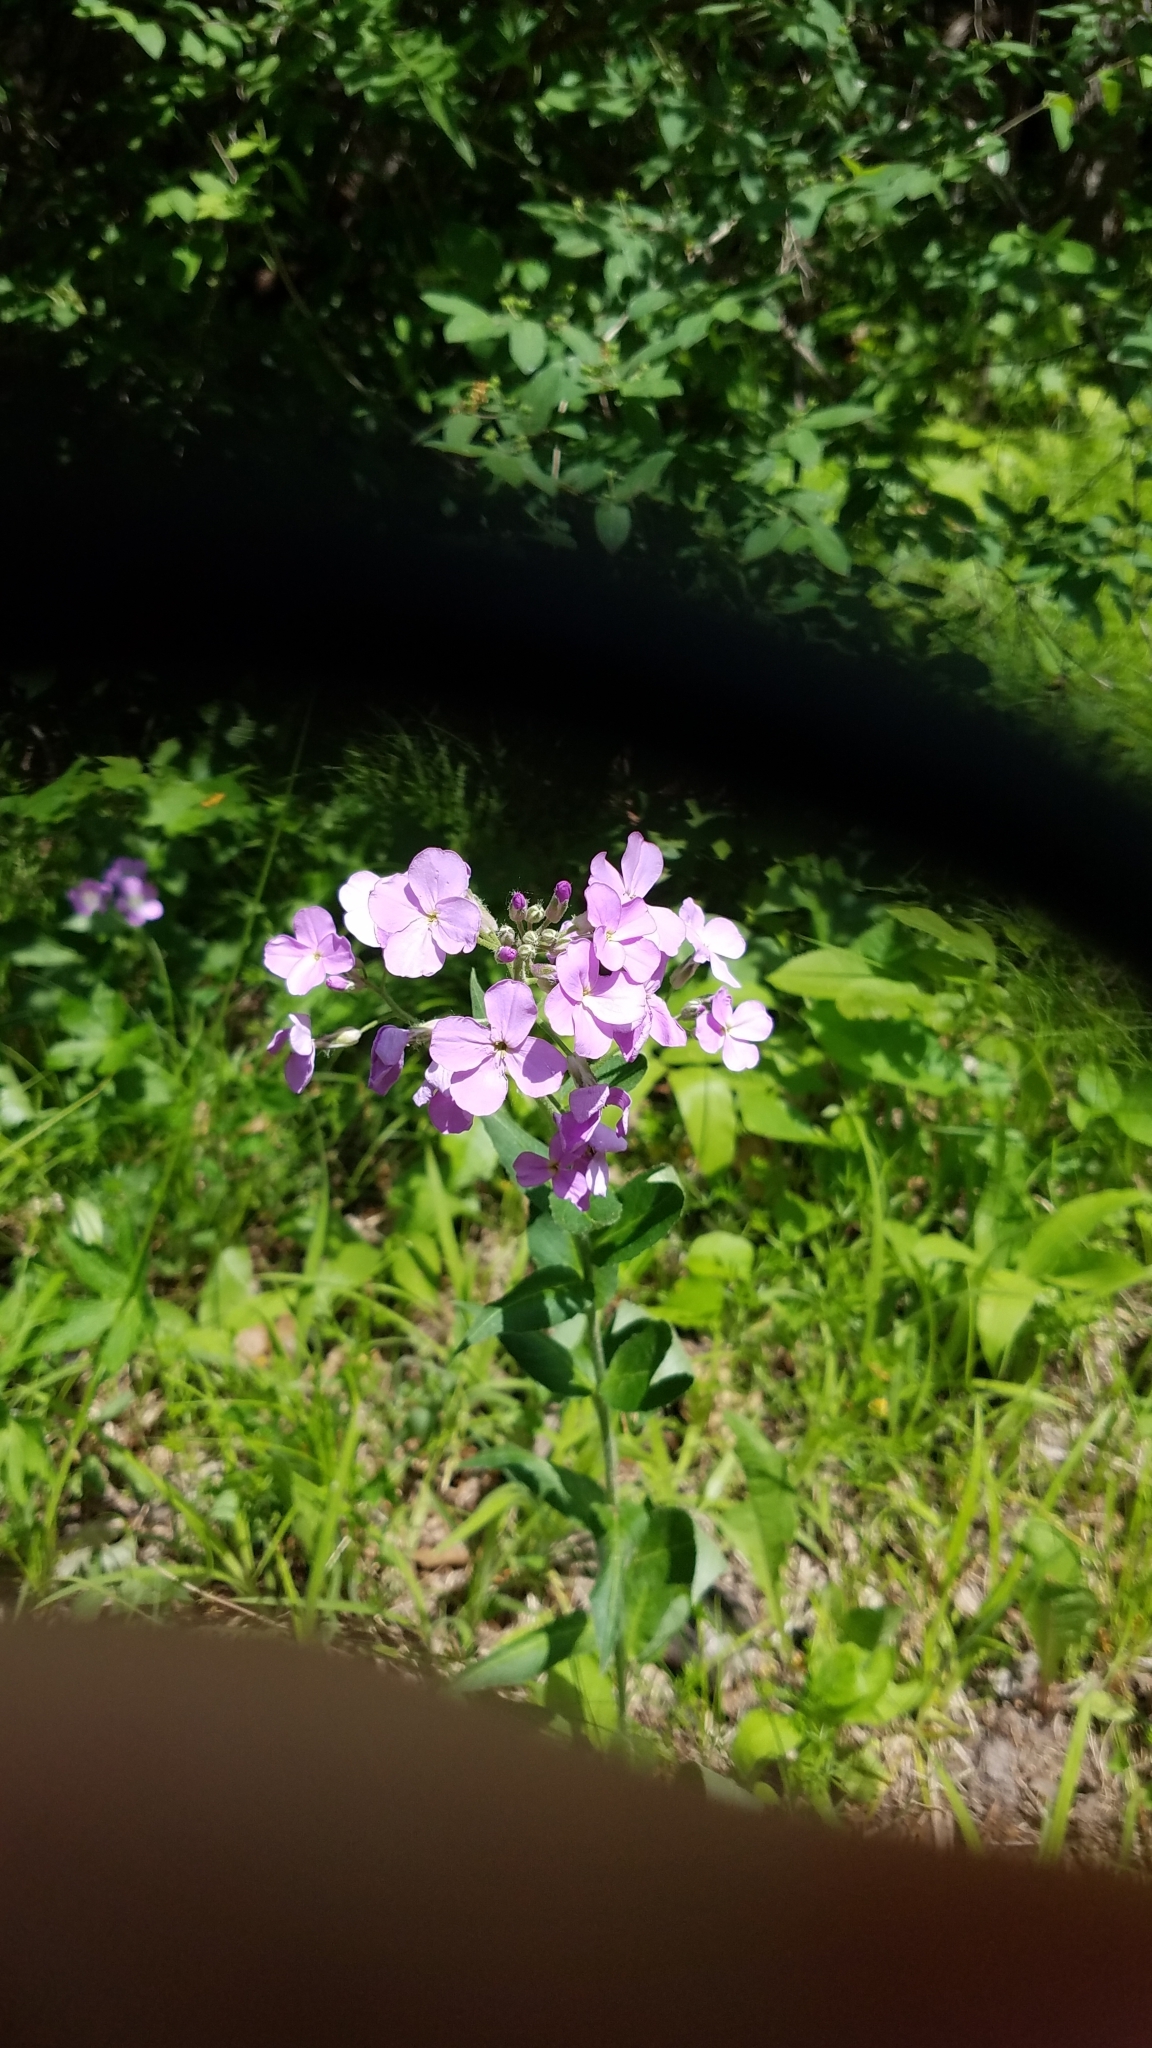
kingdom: Plantae
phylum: Tracheophyta
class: Magnoliopsida
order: Brassicales
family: Brassicaceae
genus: Hesperis
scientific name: Hesperis matronalis
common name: Dame's-violet
